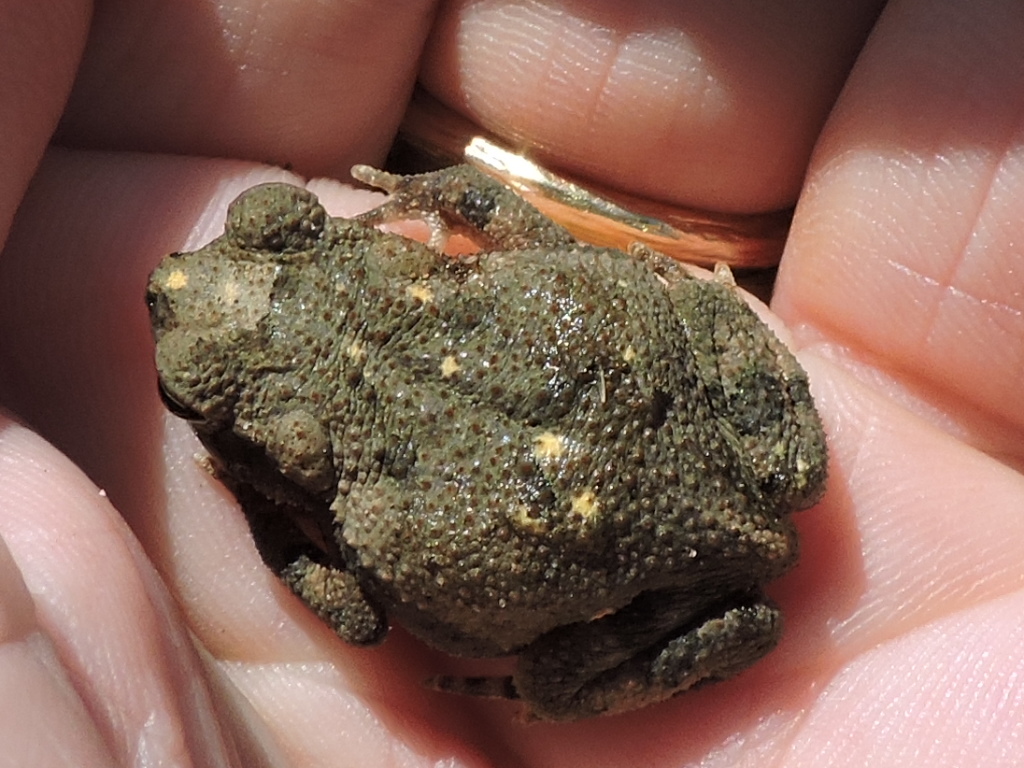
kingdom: Animalia
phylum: Chordata
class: Amphibia
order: Anura
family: Bufonidae
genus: Incilius
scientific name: Incilius nebulifer
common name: Gulf coast toad
